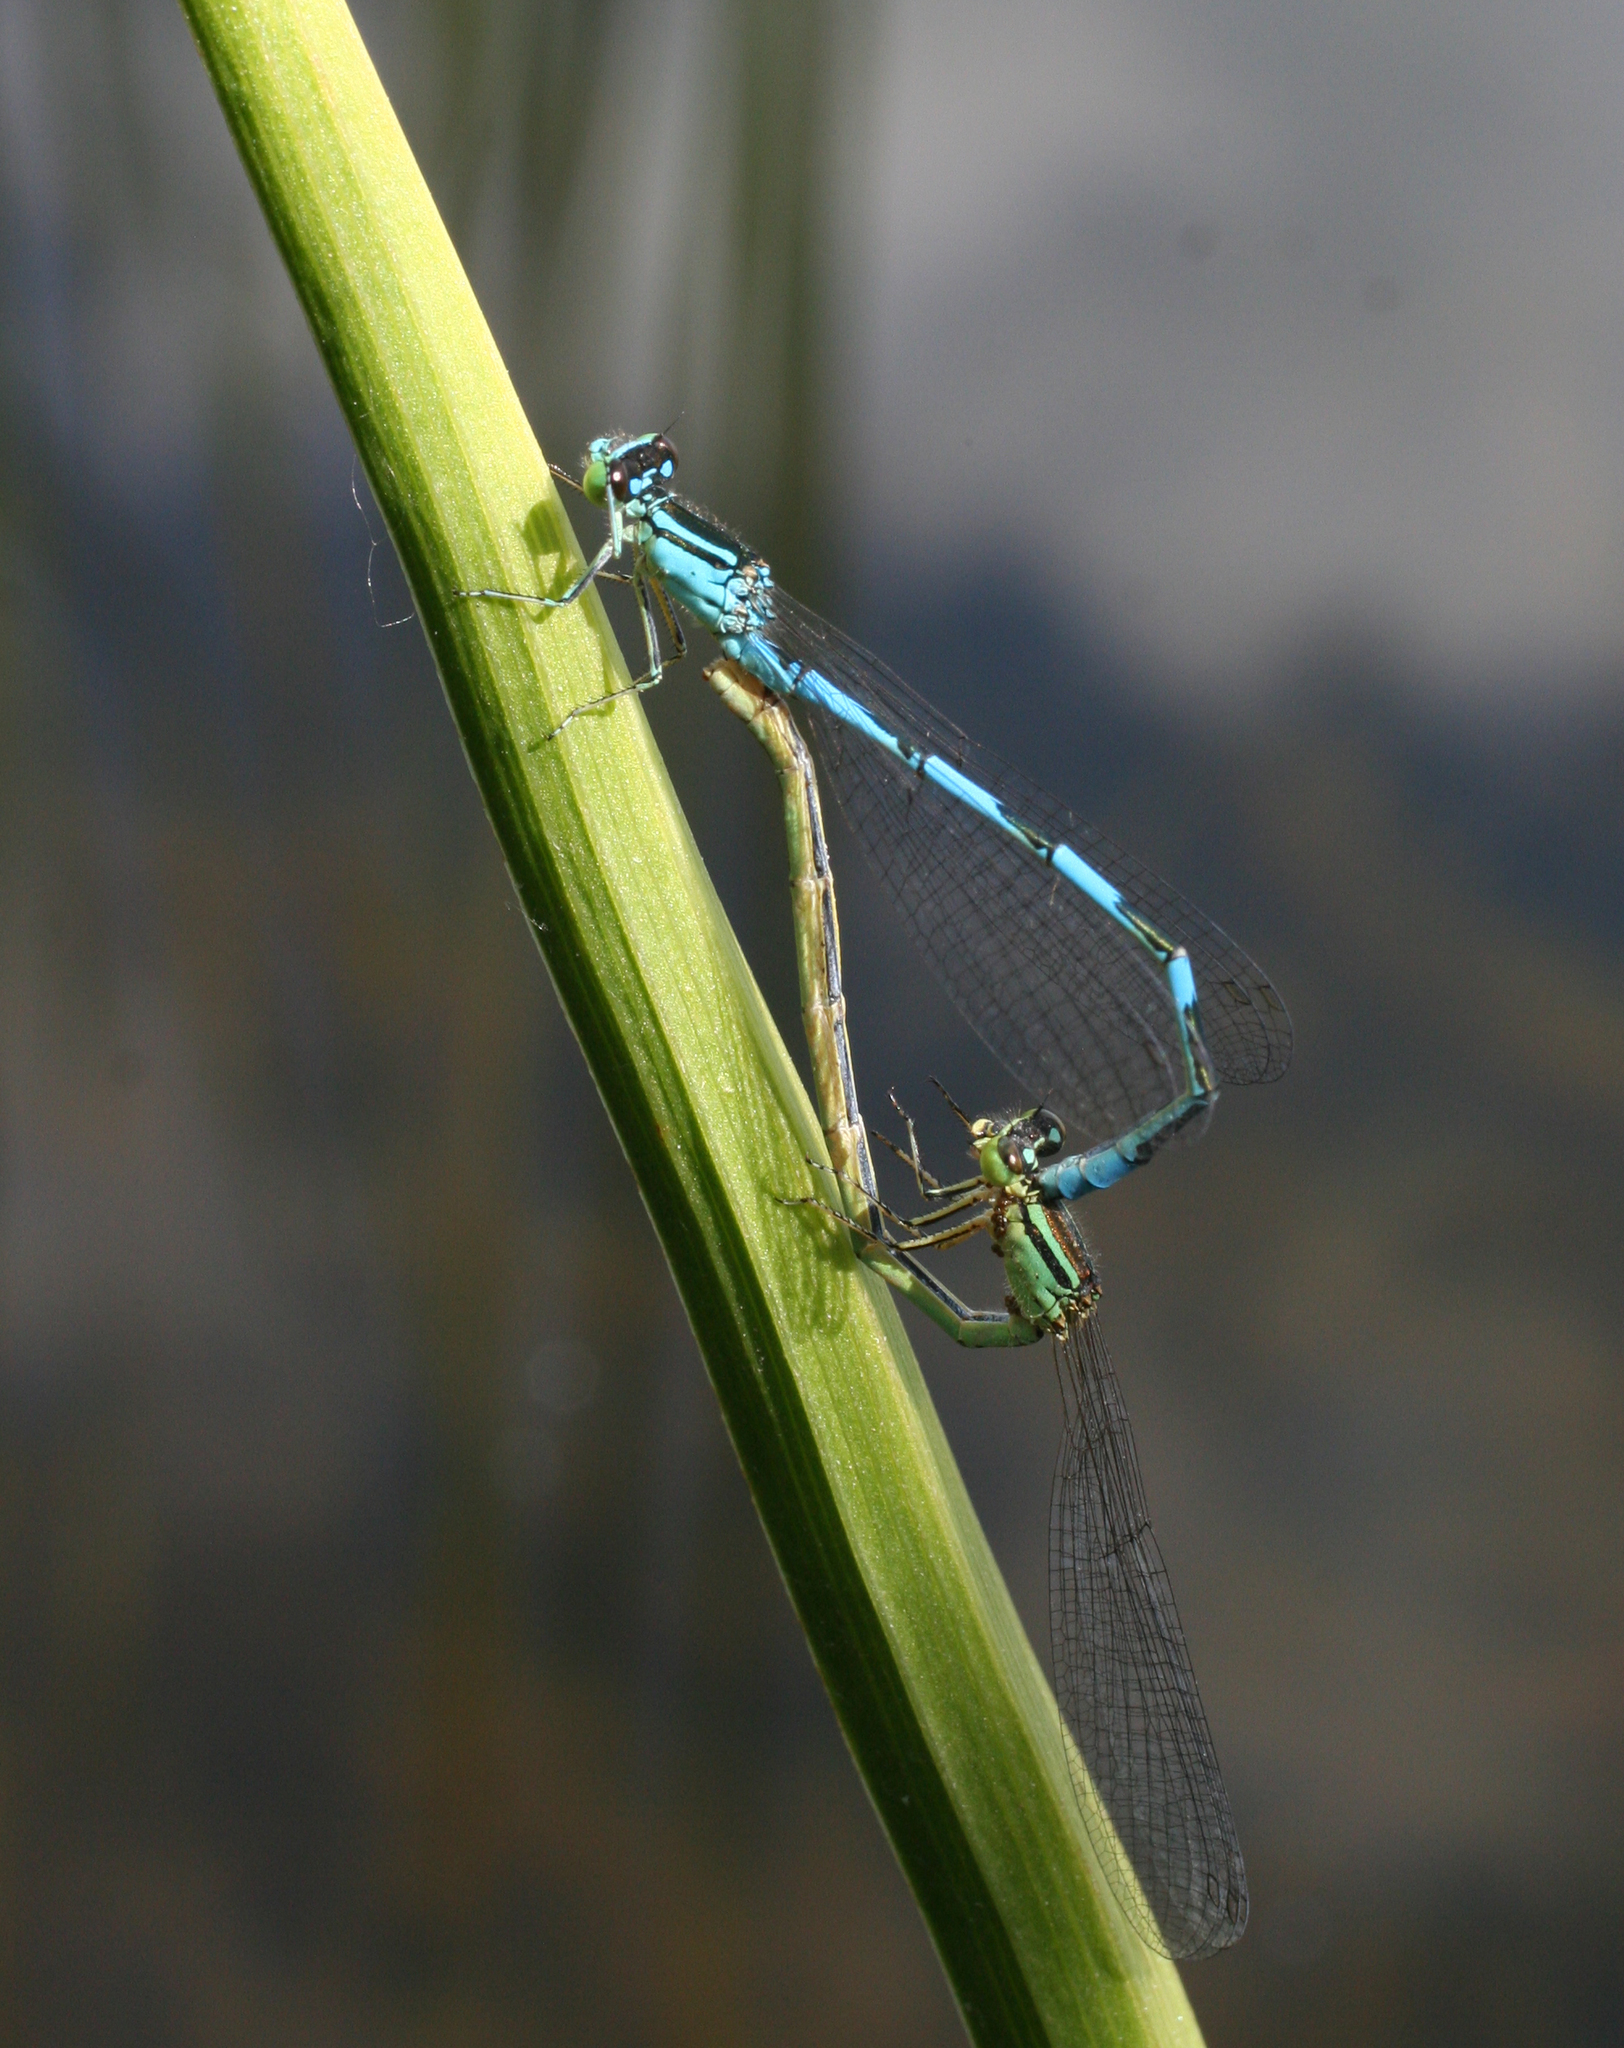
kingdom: Animalia
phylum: Arthropoda
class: Insecta
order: Odonata
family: Coenagrionidae
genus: Coenagrion
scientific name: Coenagrion lanceolatum
